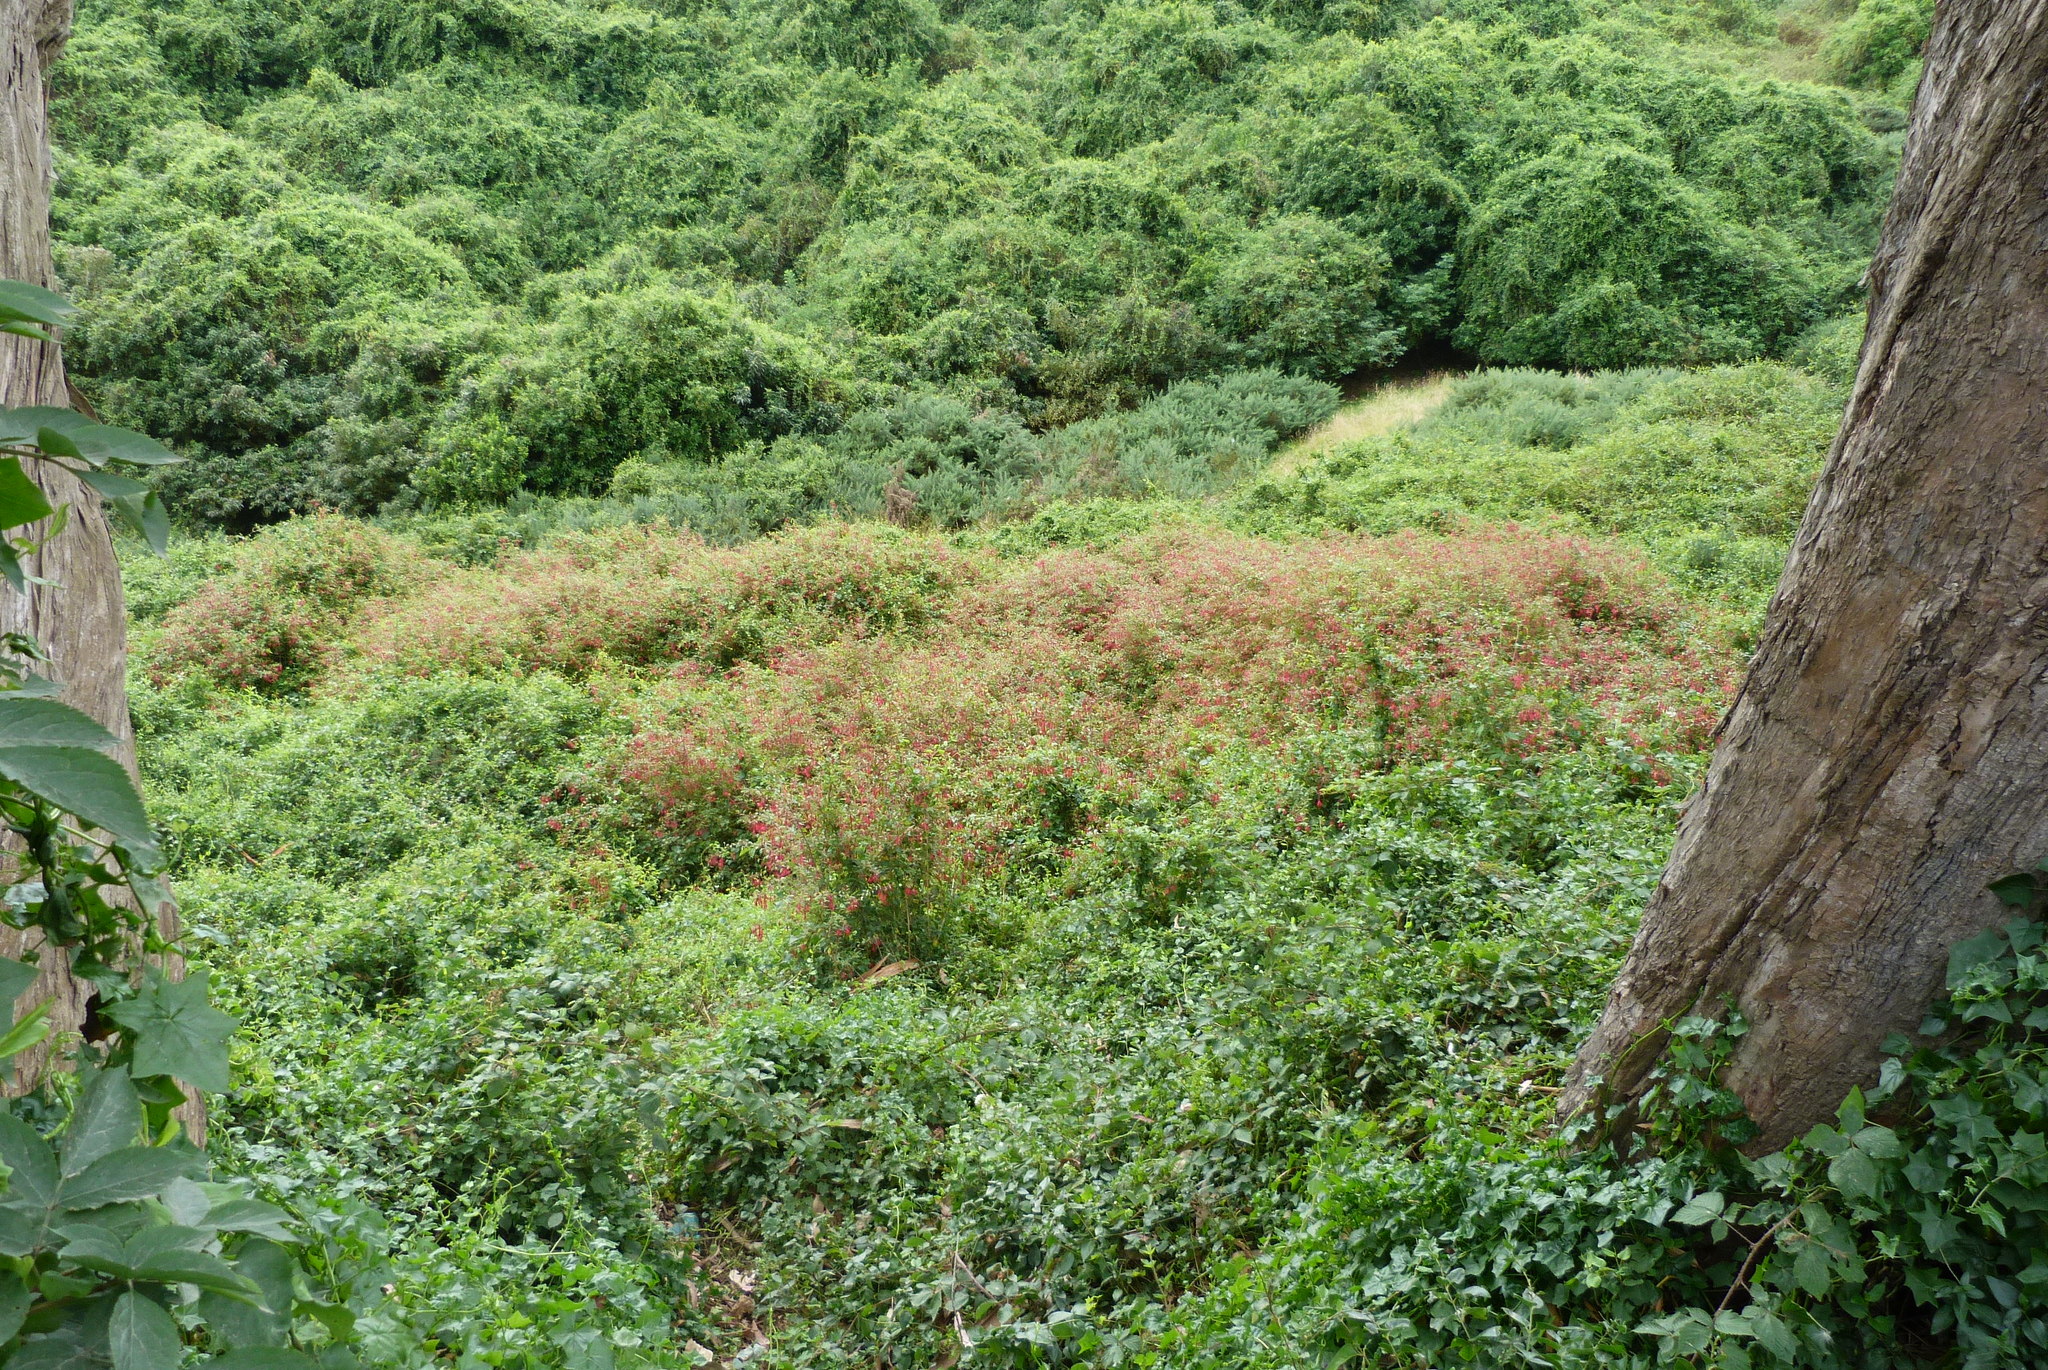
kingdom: Plantae
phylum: Tracheophyta
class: Magnoliopsida
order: Myrtales
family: Onagraceae
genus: Fuchsia
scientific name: Fuchsia magellanica
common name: Hardy fuchsia
